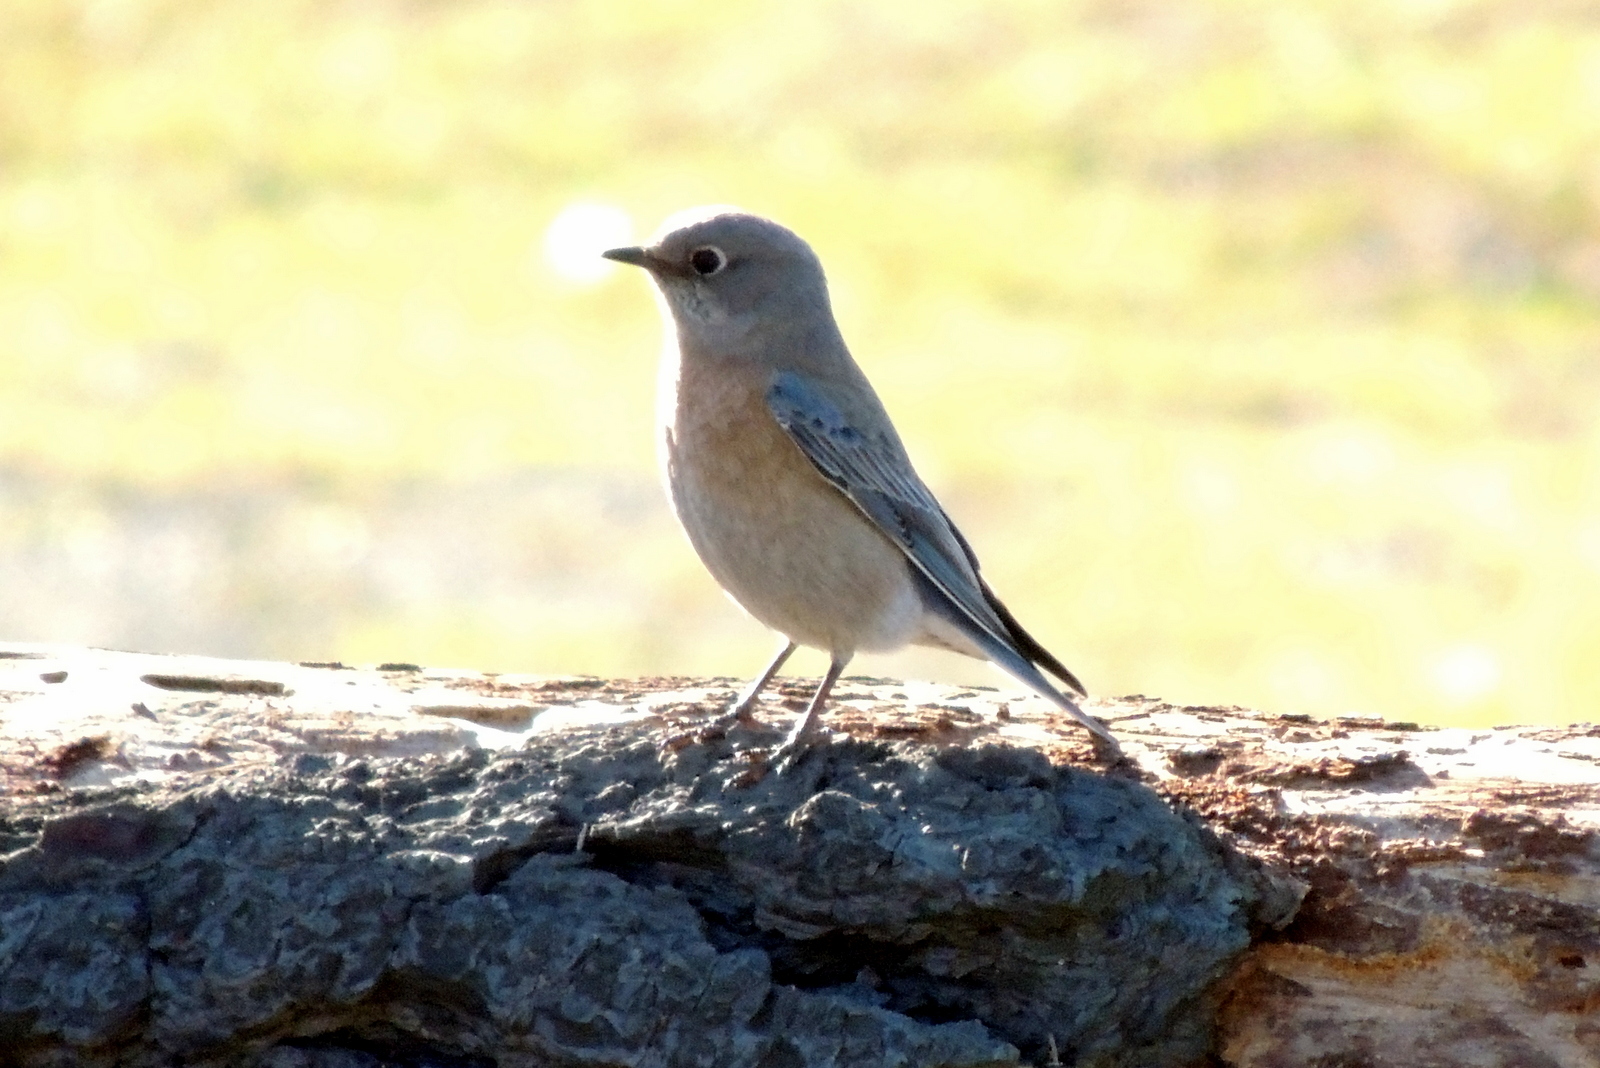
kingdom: Animalia
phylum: Chordata
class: Aves
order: Passeriformes
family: Turdidae
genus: Sialia
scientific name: Sialia mexicana
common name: Western bluebird
